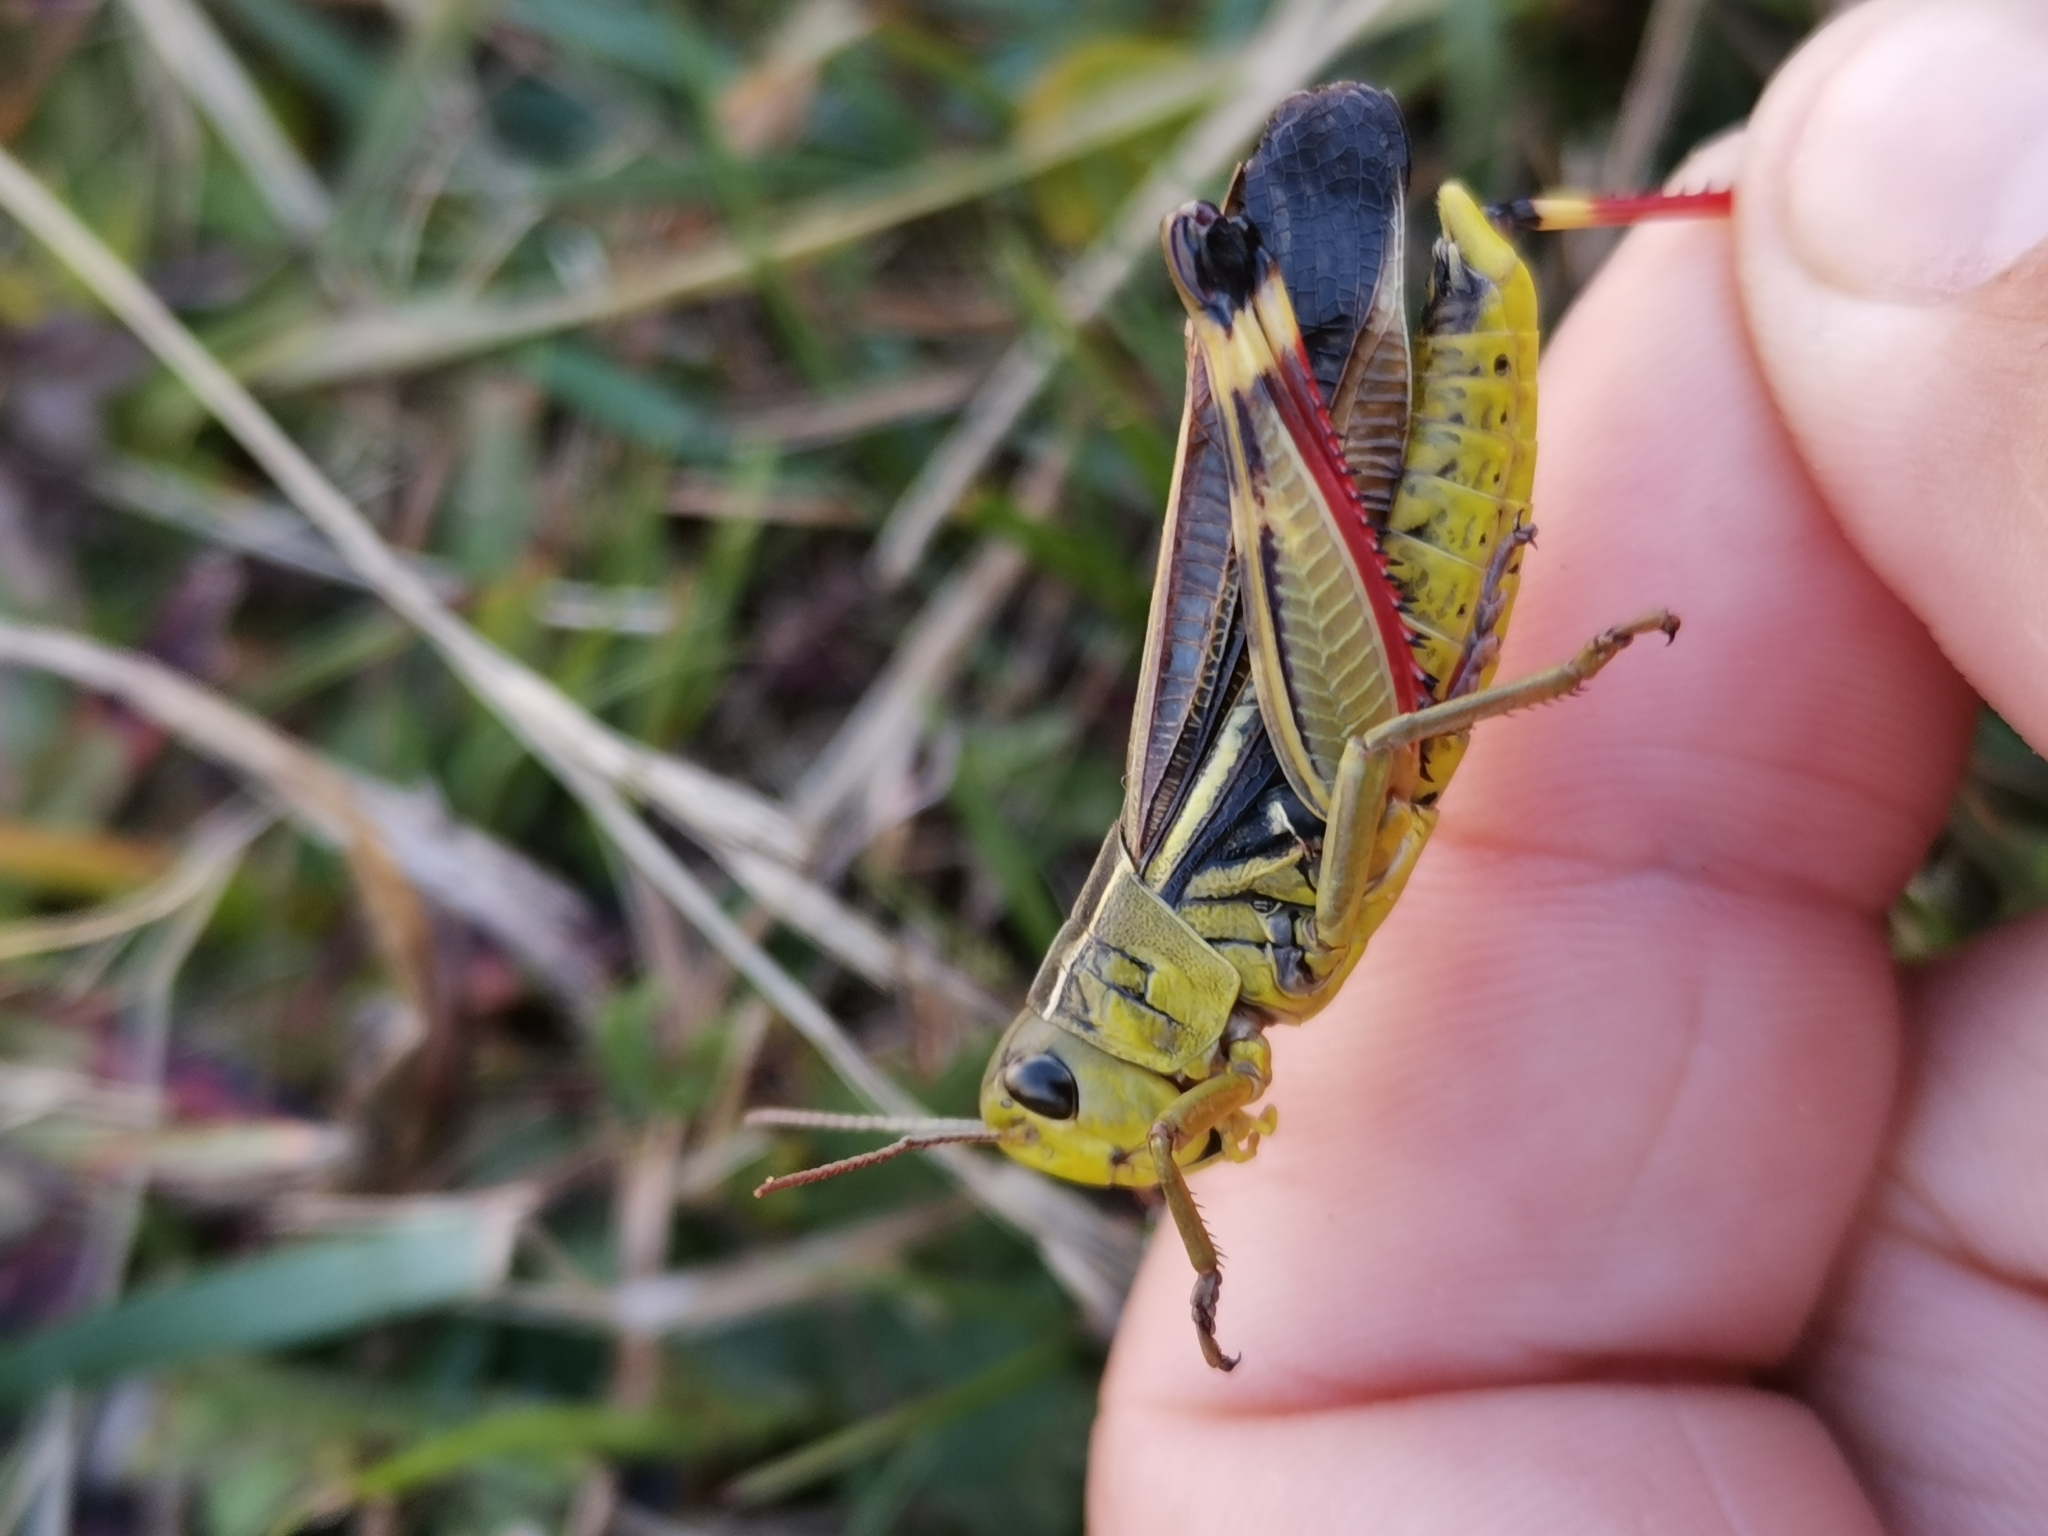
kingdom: Animalia
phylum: Arthropoda
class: Insecta
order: Orthoptera
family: Acrididae
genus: Arcyptera
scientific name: Arcyptera fusca
